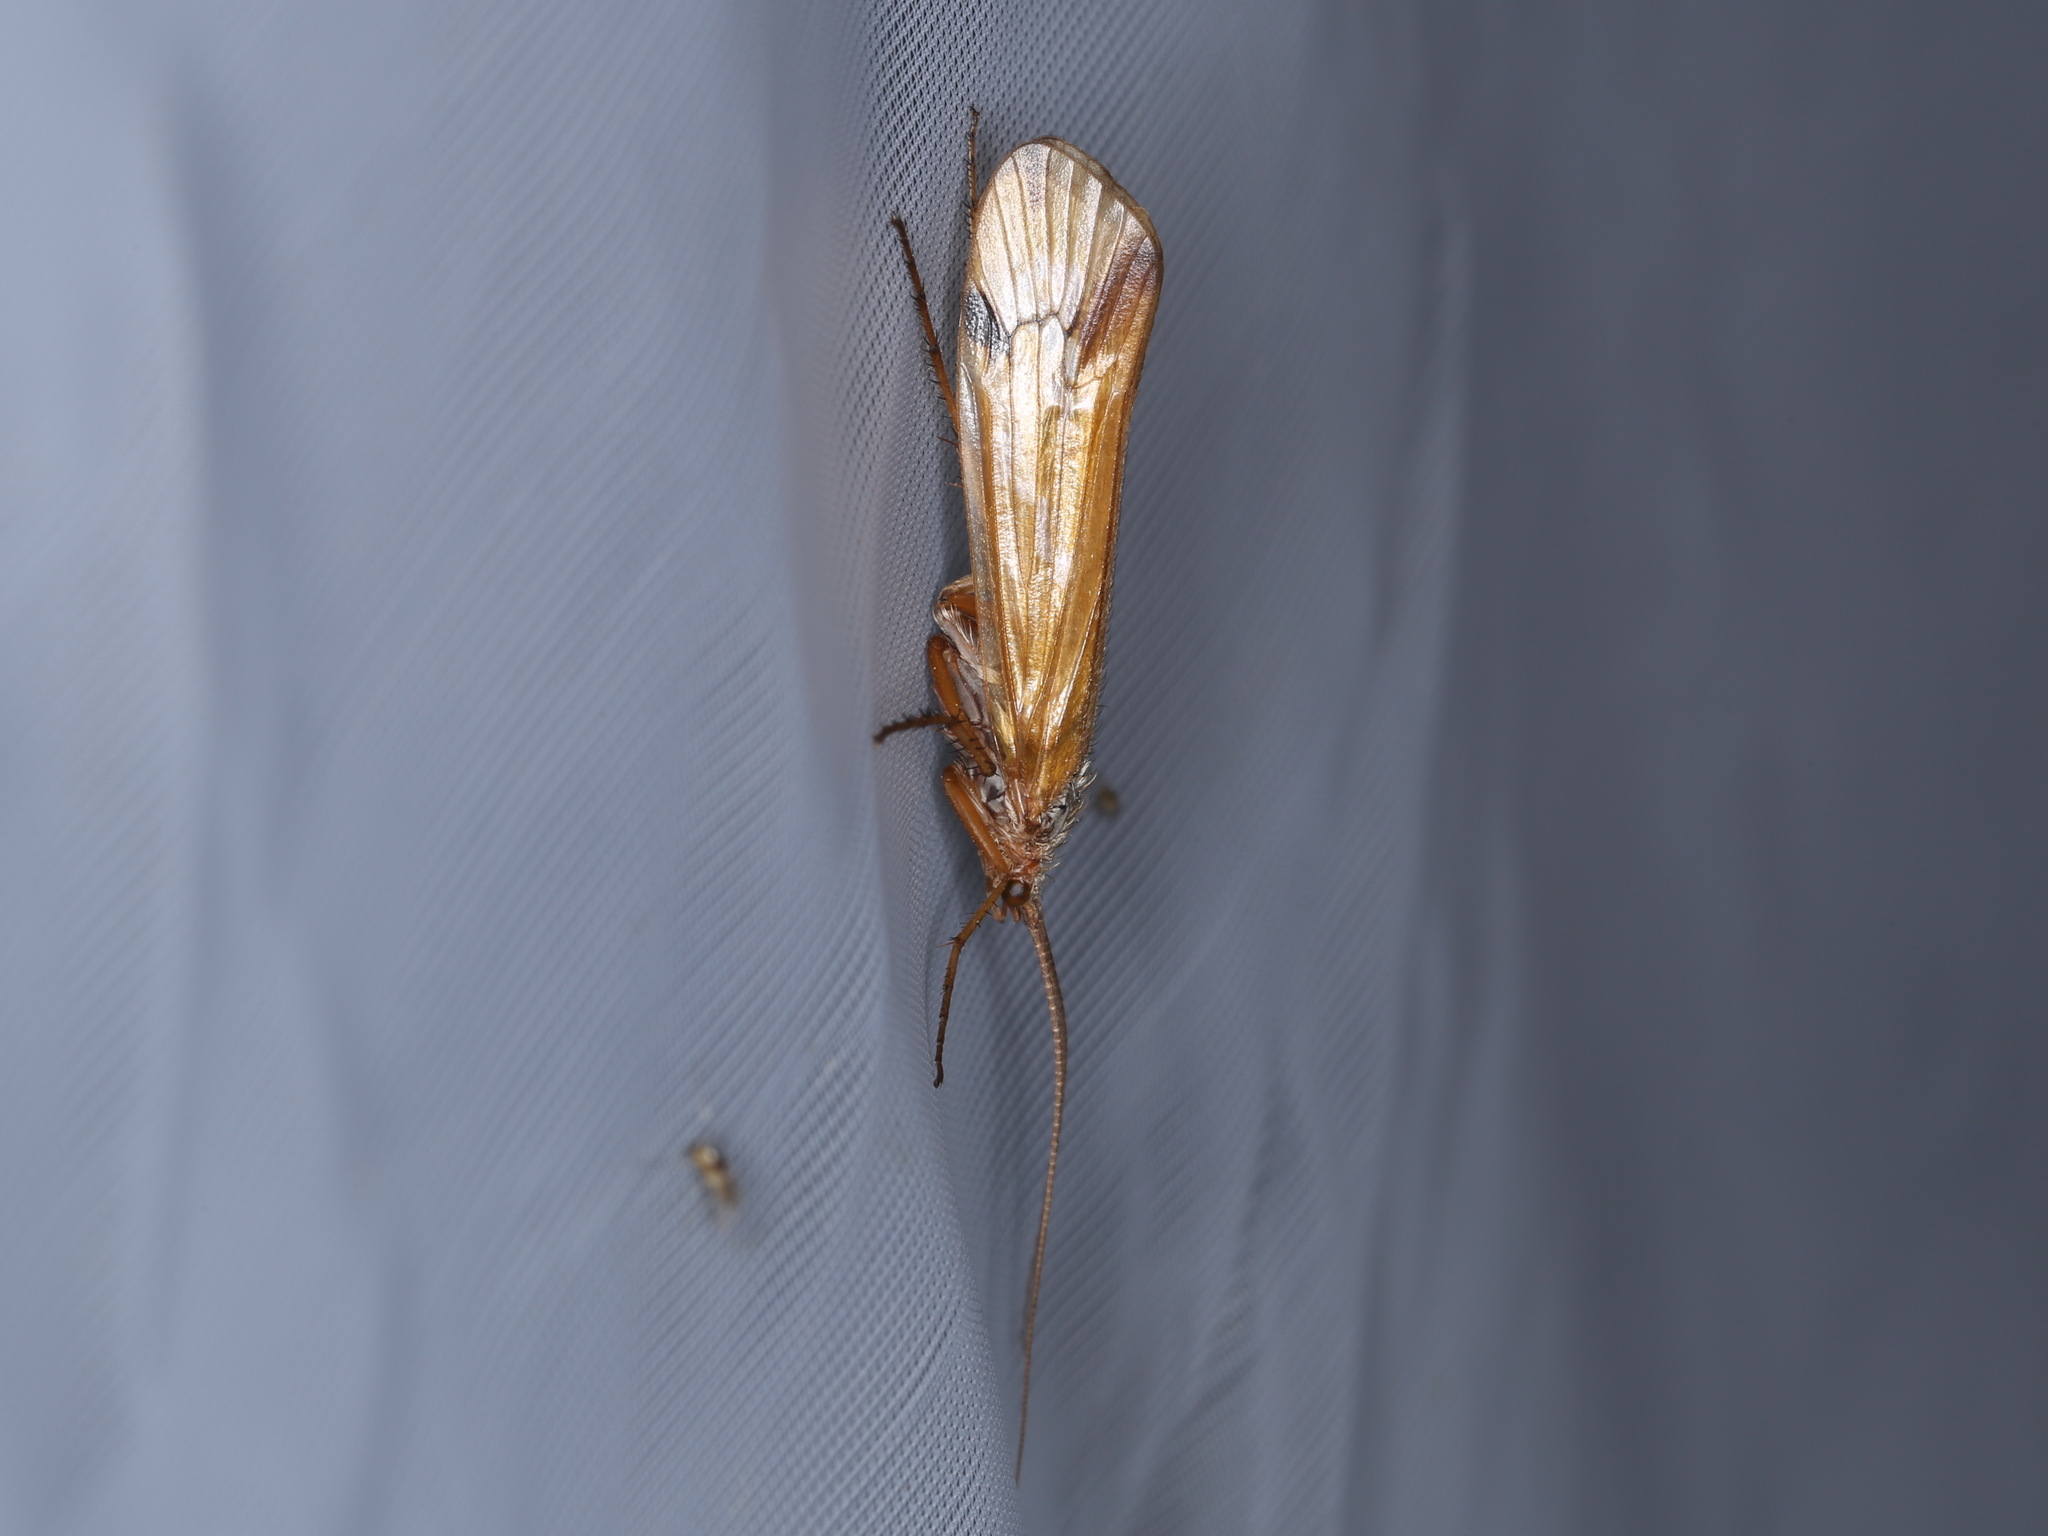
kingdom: Animalia
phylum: Arthropoda
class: Insecta
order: Trichoptera
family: Limnephilidae
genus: Limnephilus
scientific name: Limnephilus binotatus
